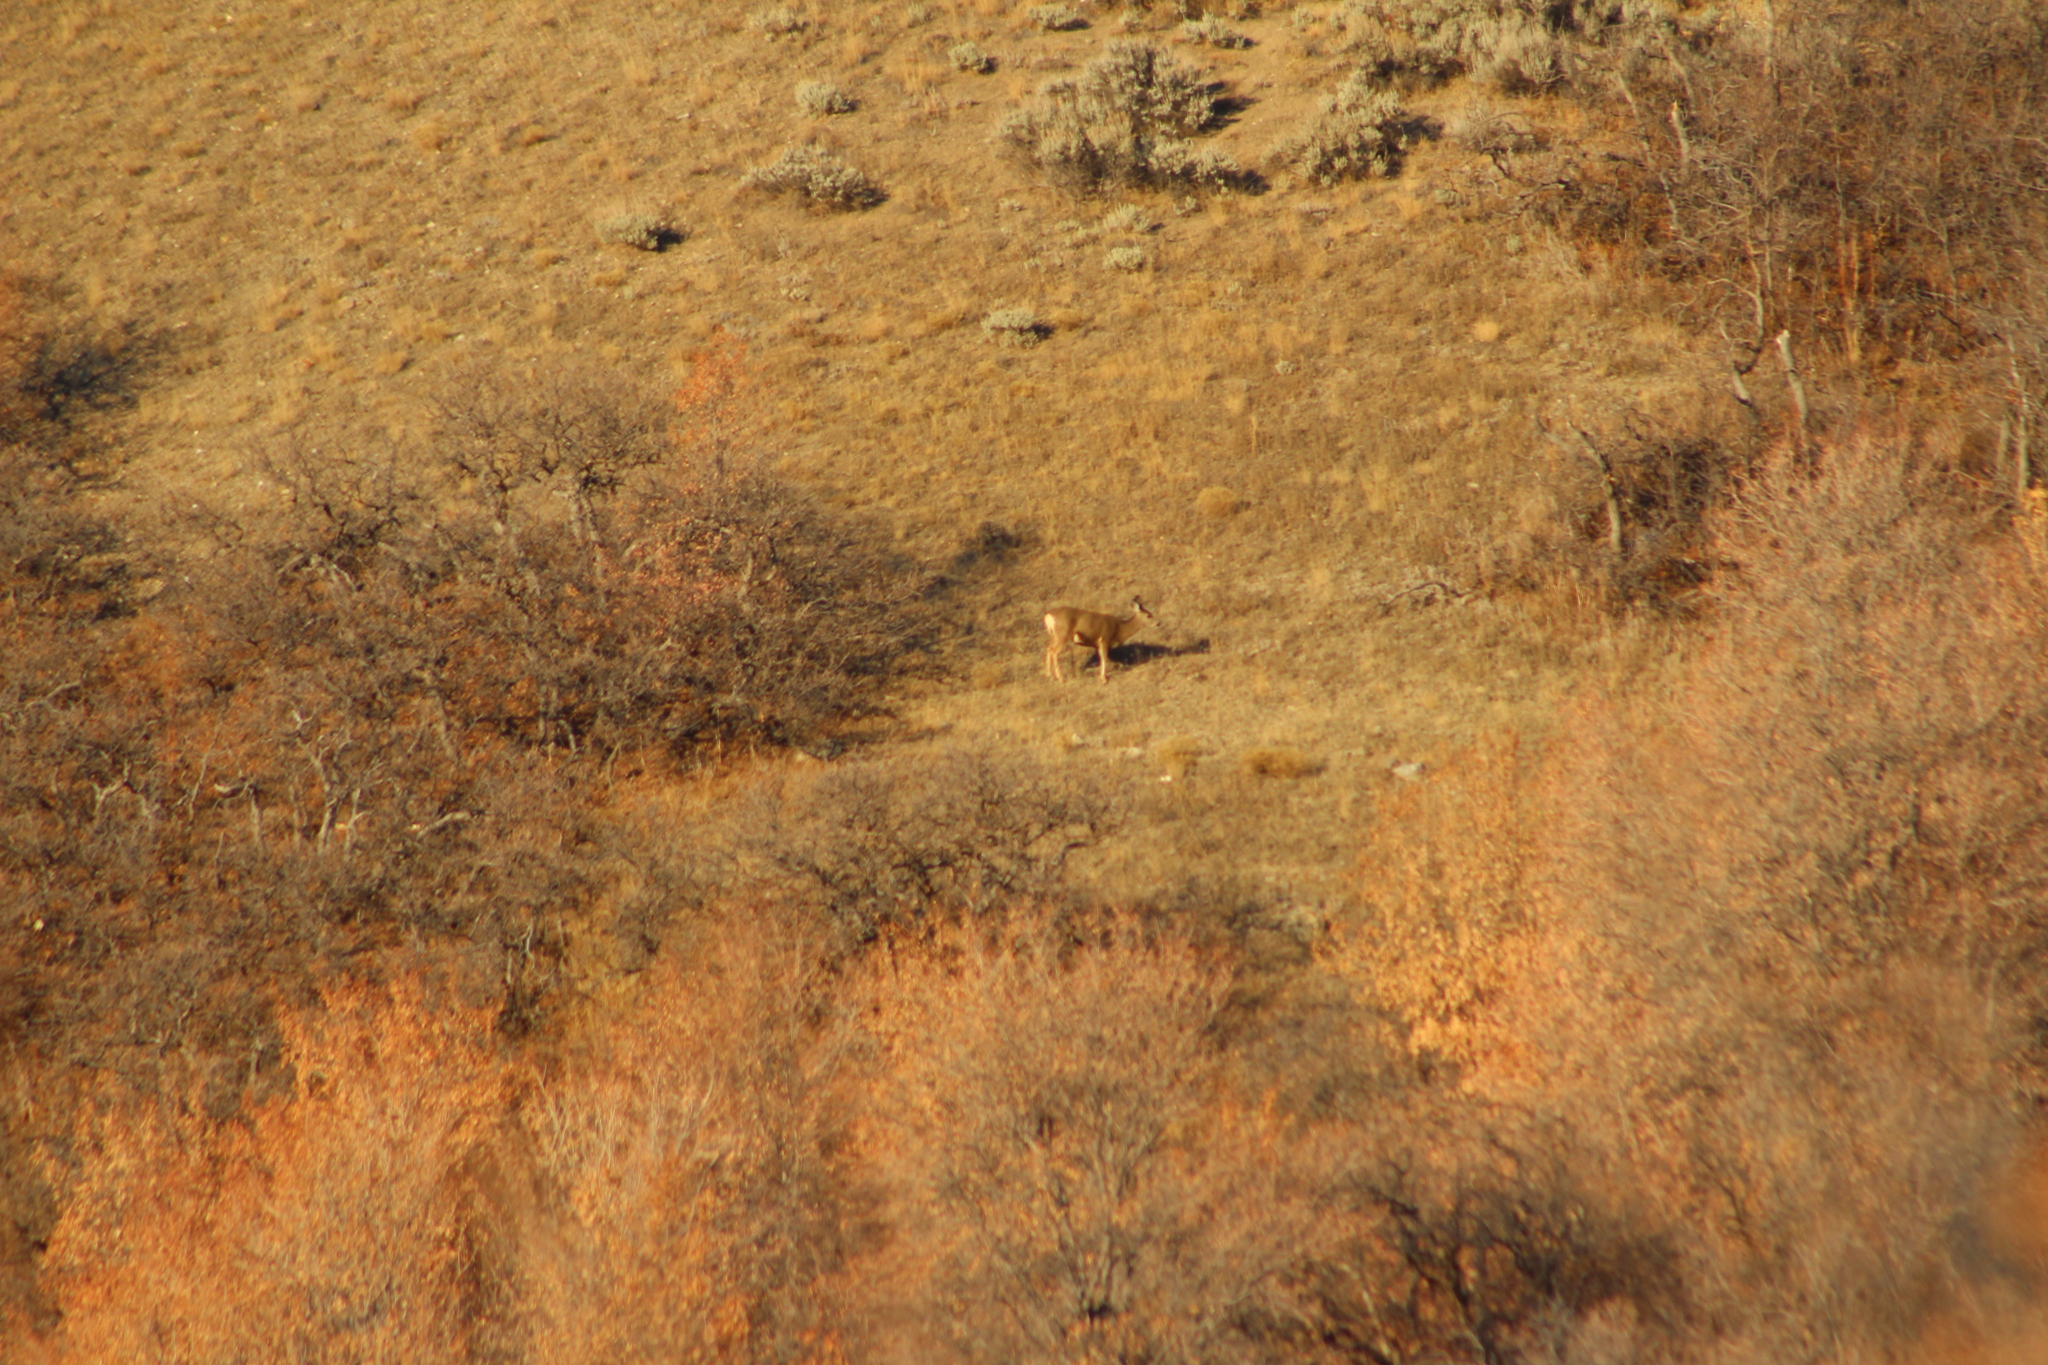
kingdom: Animalia
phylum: Chordata
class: Mammalia
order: Artiodactyla
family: Cervidae
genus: Odocoileus
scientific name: Odocoileus hemionus
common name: Mule deer
